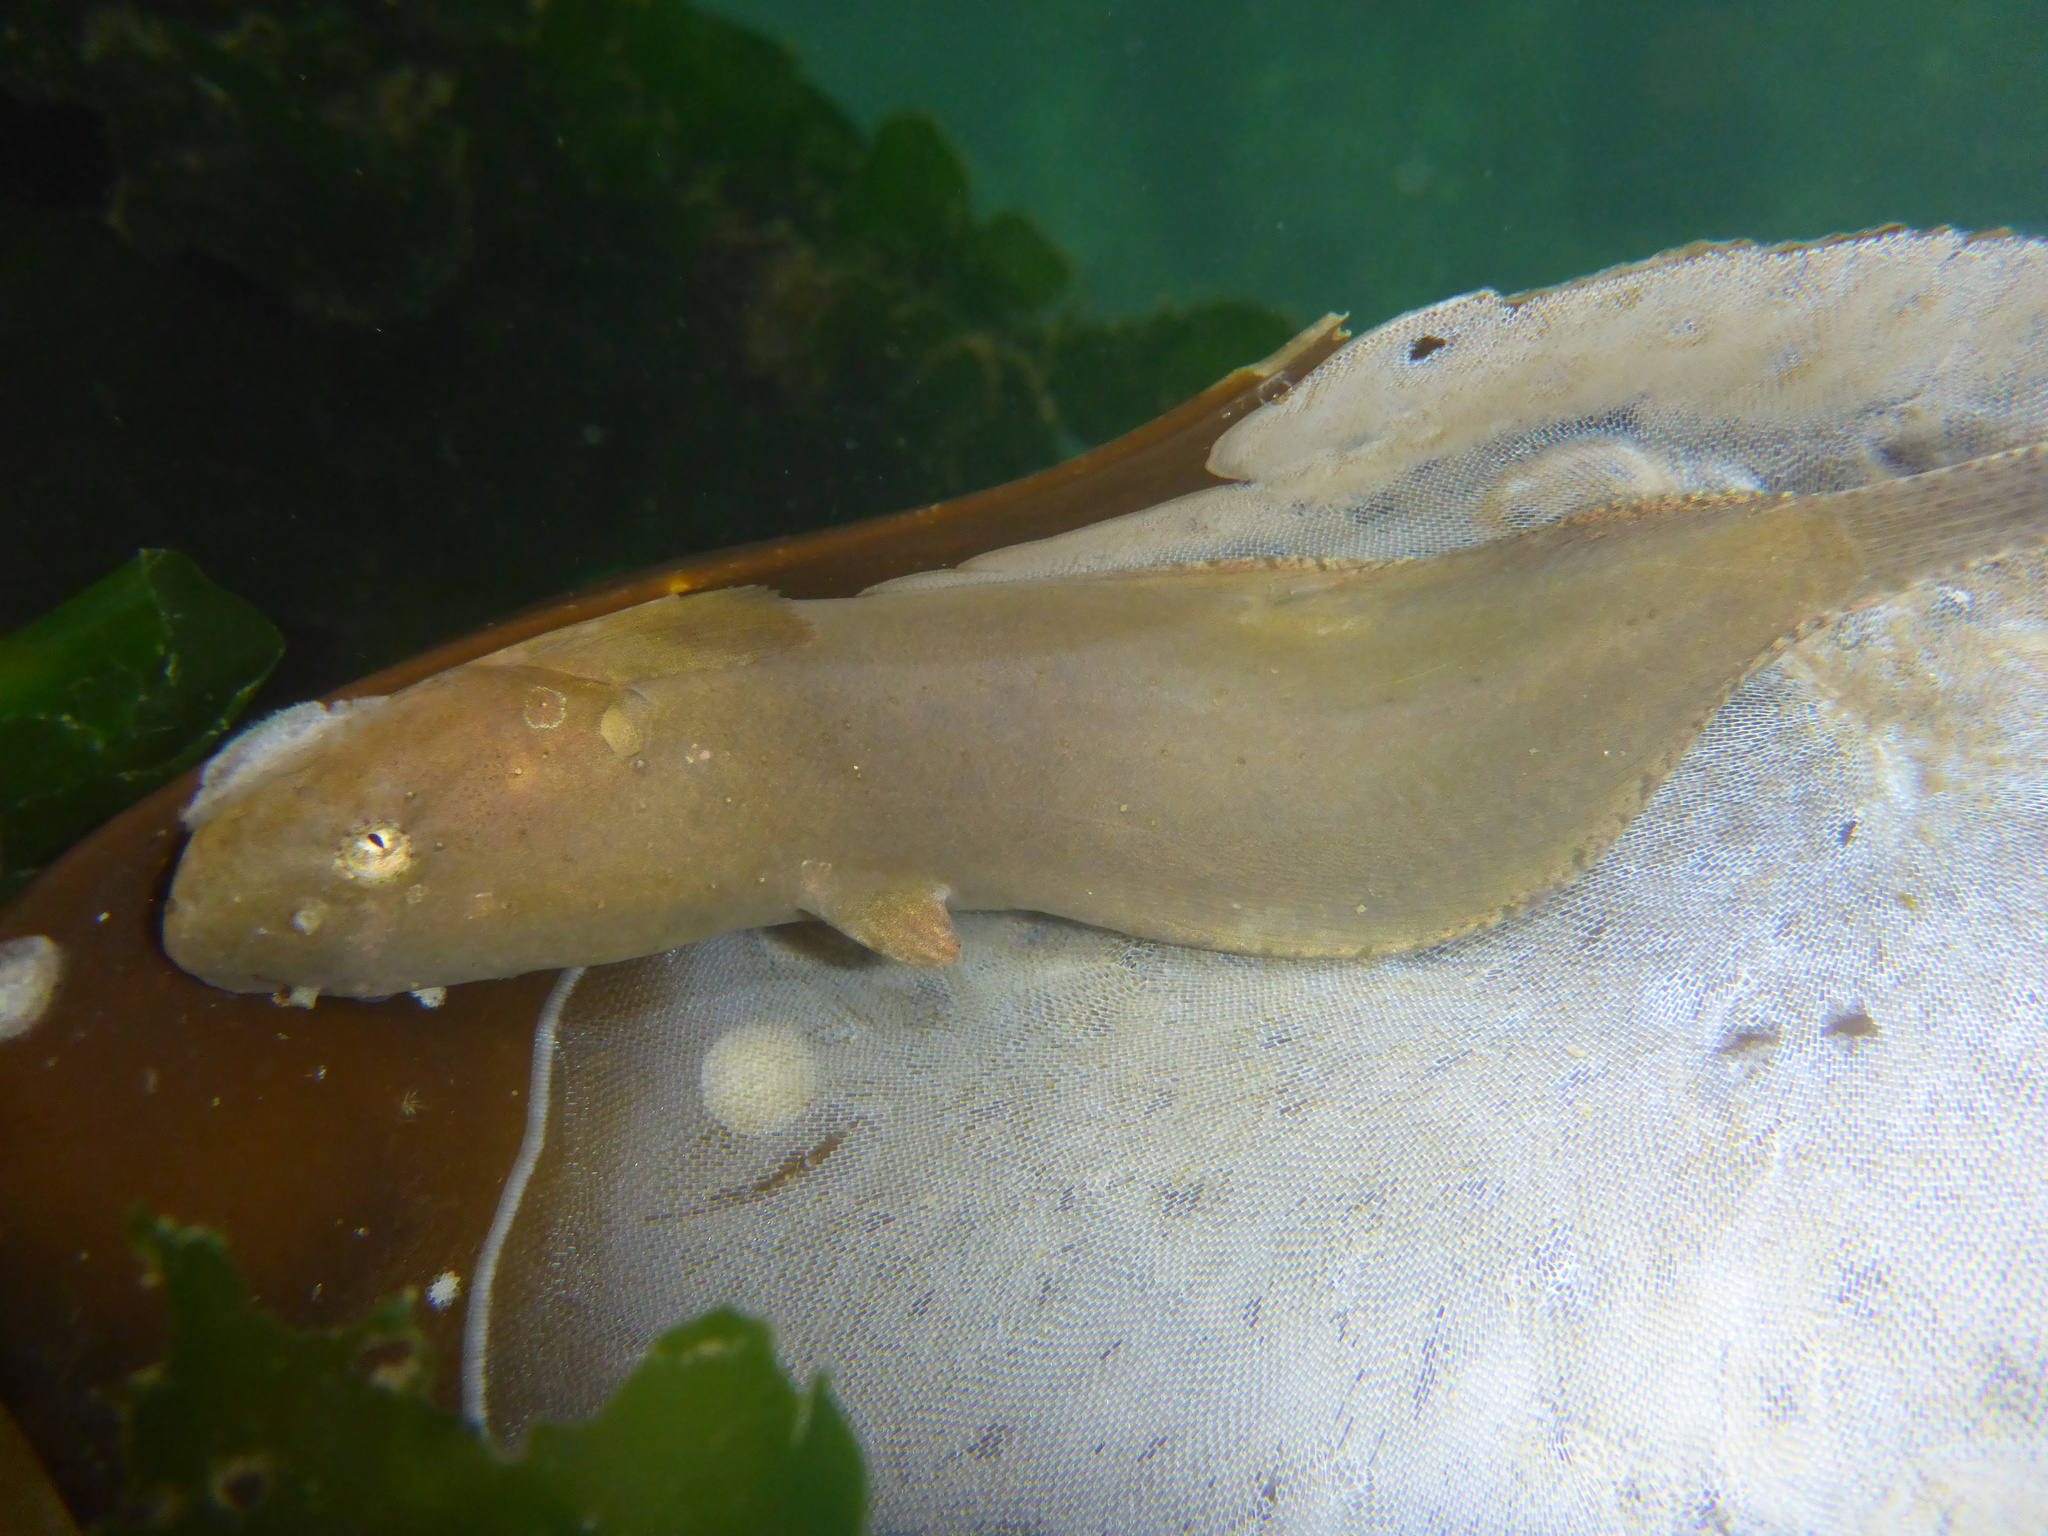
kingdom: Animalia
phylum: Chordata
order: Scorpaeniformes
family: Liparidae
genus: Liparis
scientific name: Liparis florae
